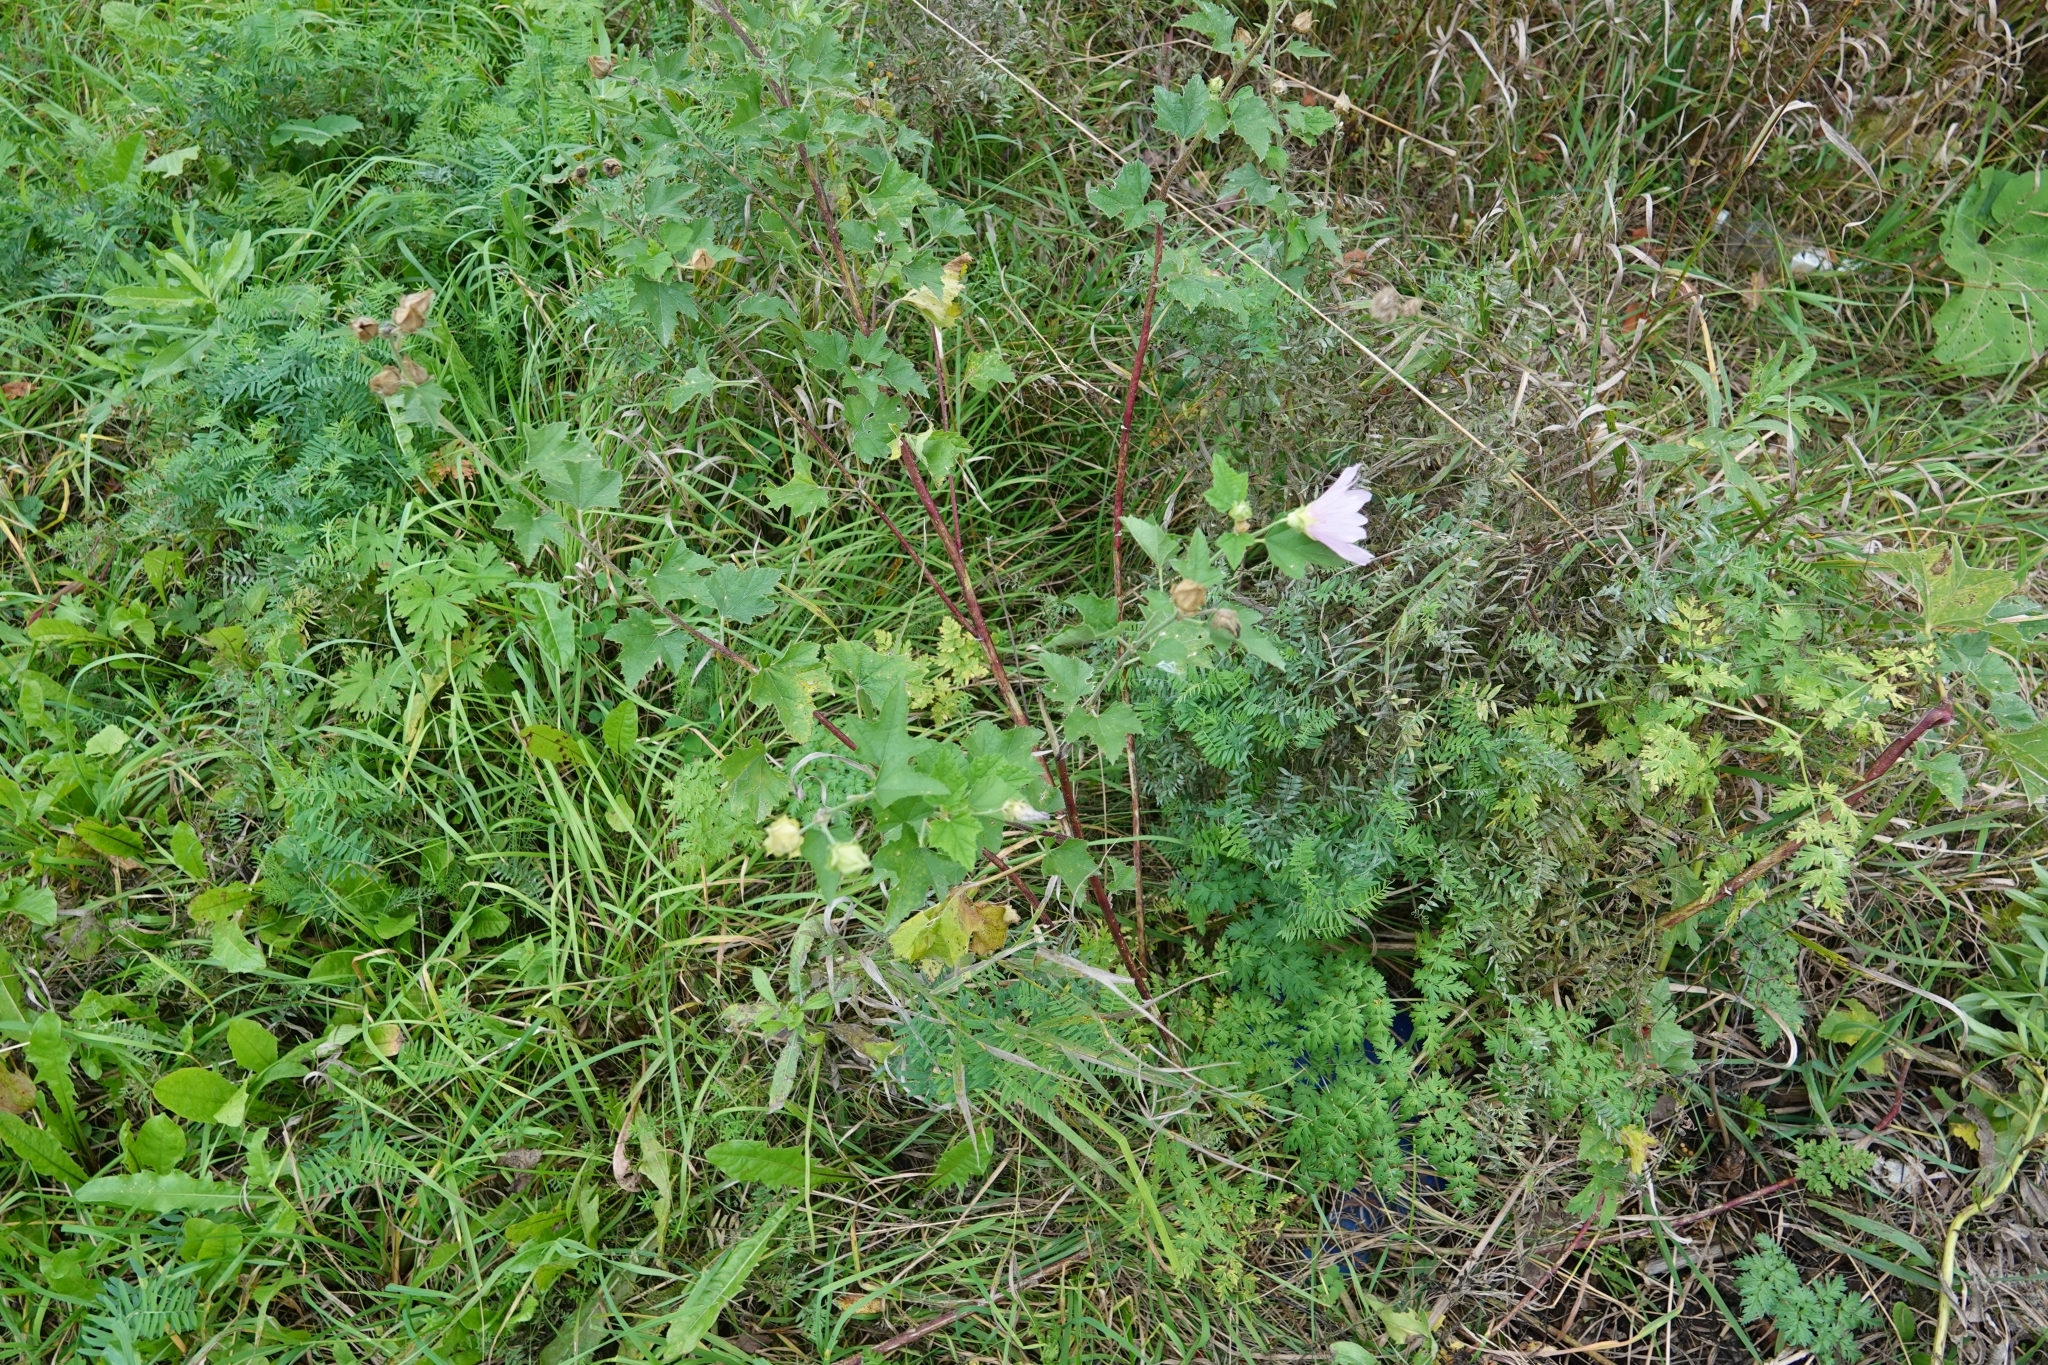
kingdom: Plantae
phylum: Tracheophyta
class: Magnoliopsida
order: Malvales
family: Malvaceae
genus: Malva
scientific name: Malva thuringiaca
